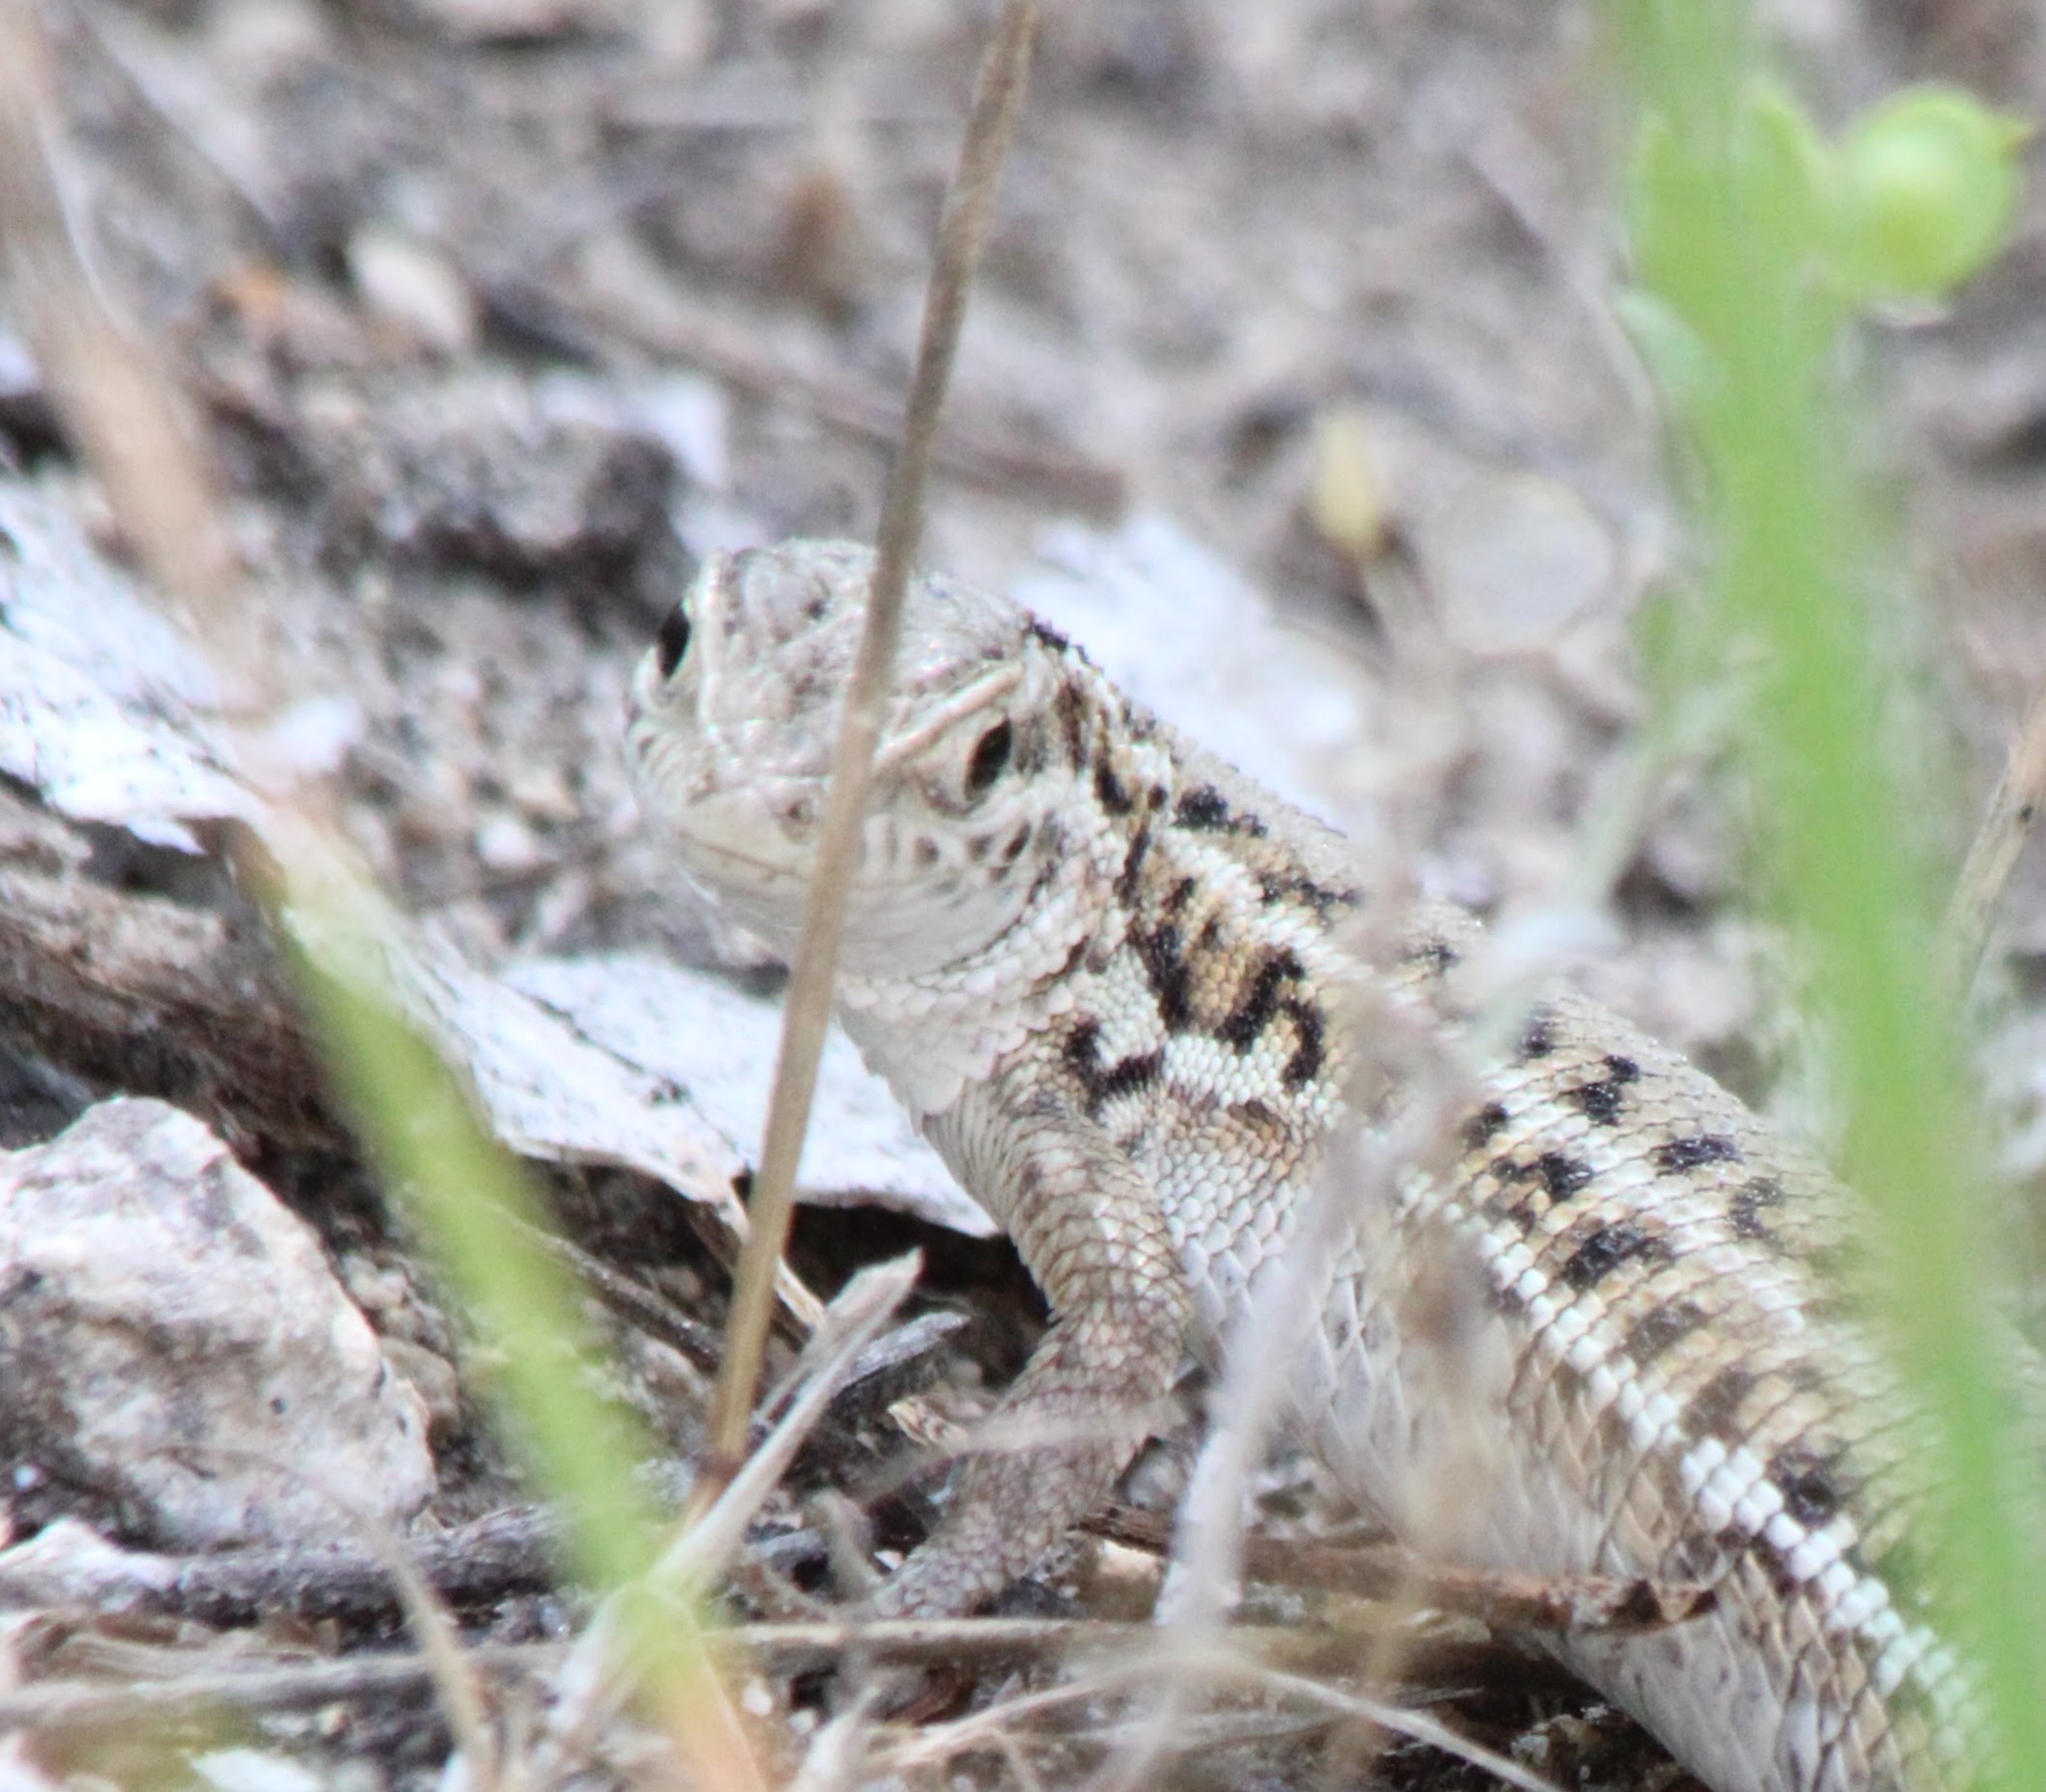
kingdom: Animalia
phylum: Chordata
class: Squamata
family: Lacertidae
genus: Ophisops
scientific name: Ophisops elegans
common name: Snake-eyed lizard
